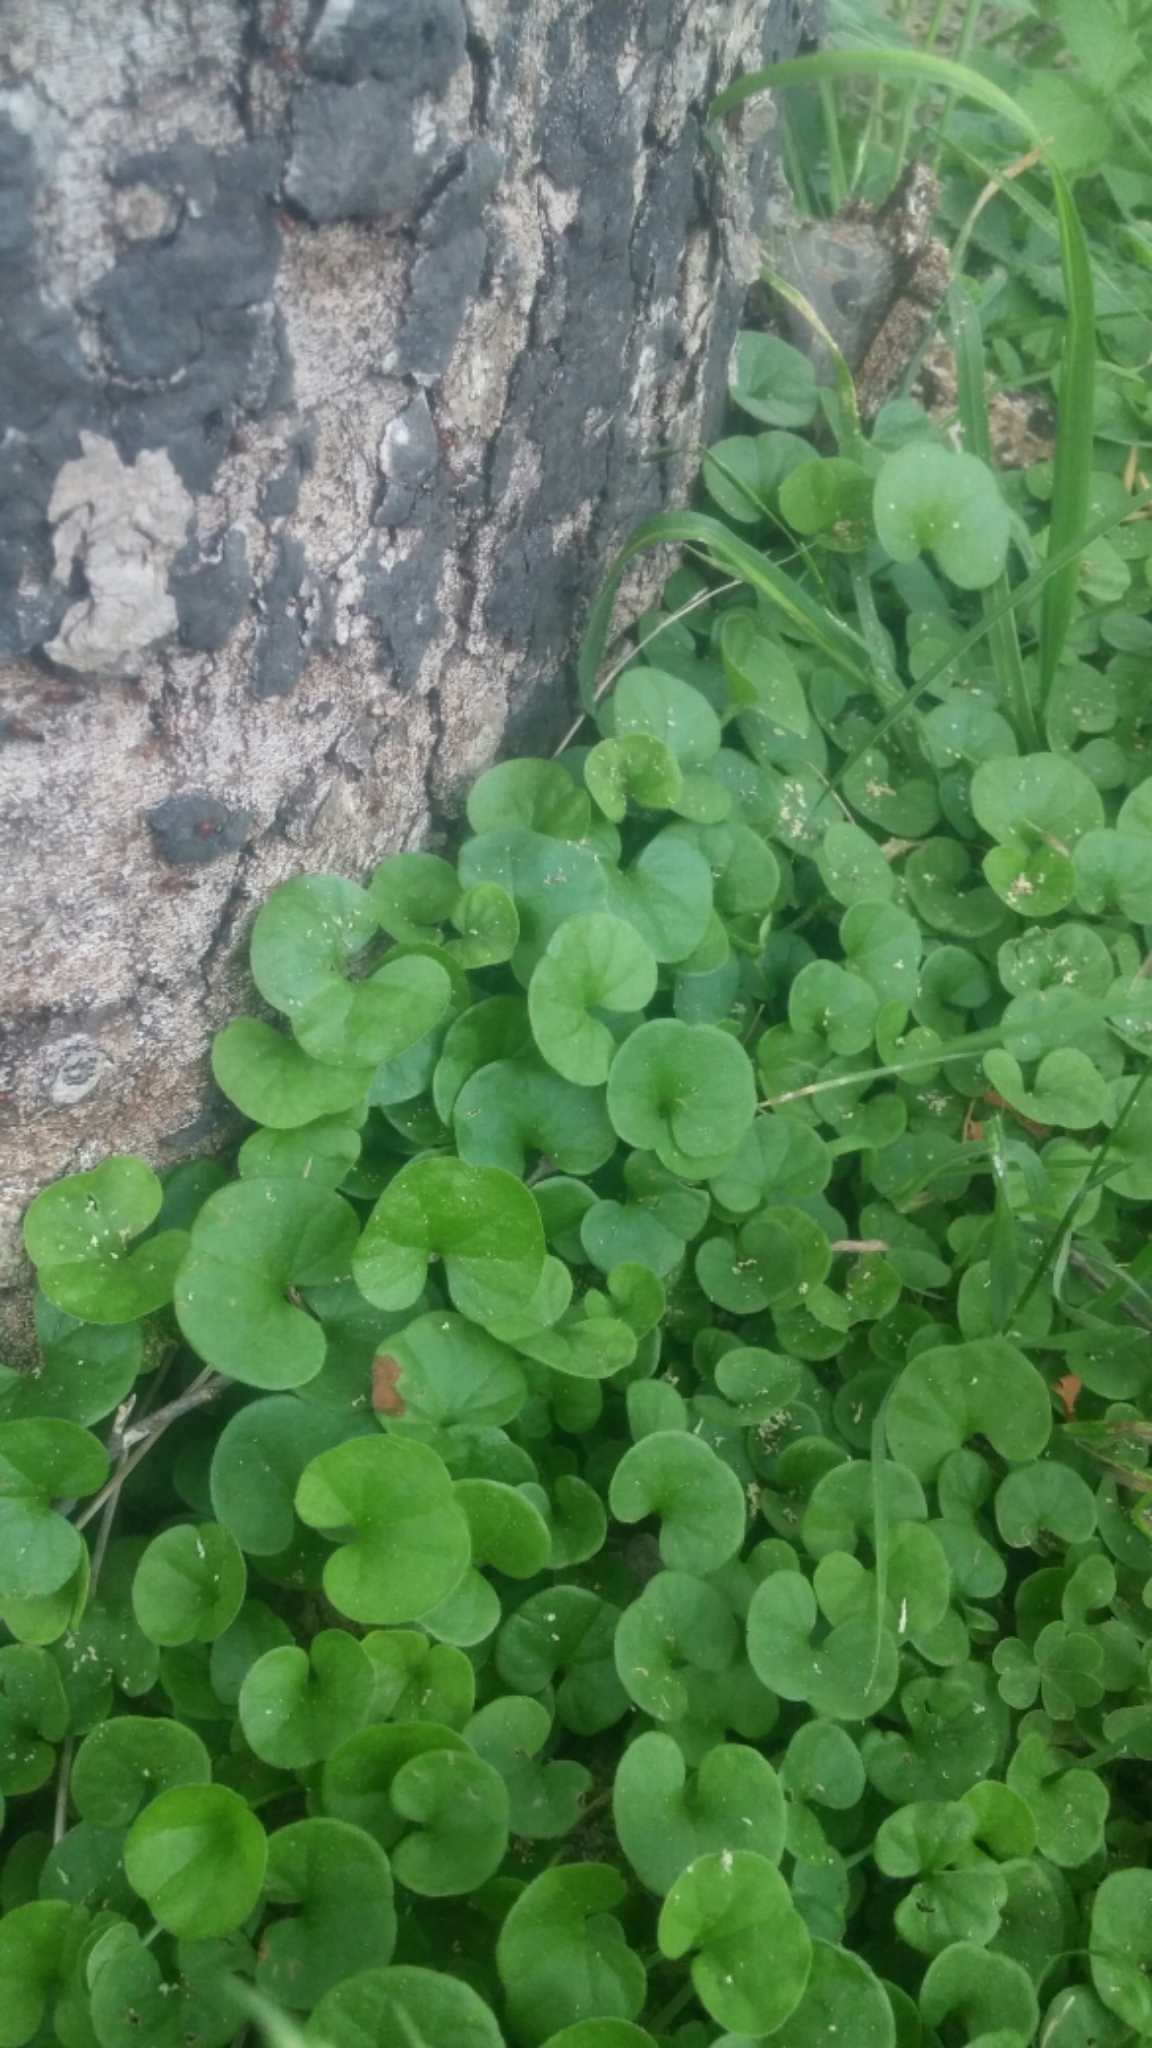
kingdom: Plantae
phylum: Tracheophyta
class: Magnoliopsida
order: Solanales
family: Convolvulaceae
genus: Dichondra
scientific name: Dichondra carolinensis
